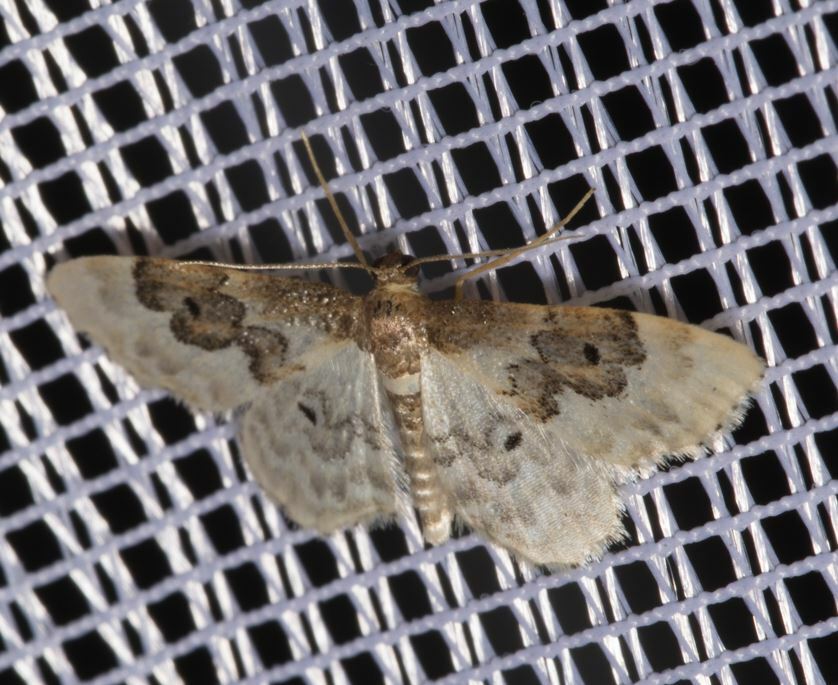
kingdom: Animalia
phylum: Arthropoda
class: Insecta
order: Lepidoptera
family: Geometridae
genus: Idaea
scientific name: Idaea rusticata
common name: Least carpet
